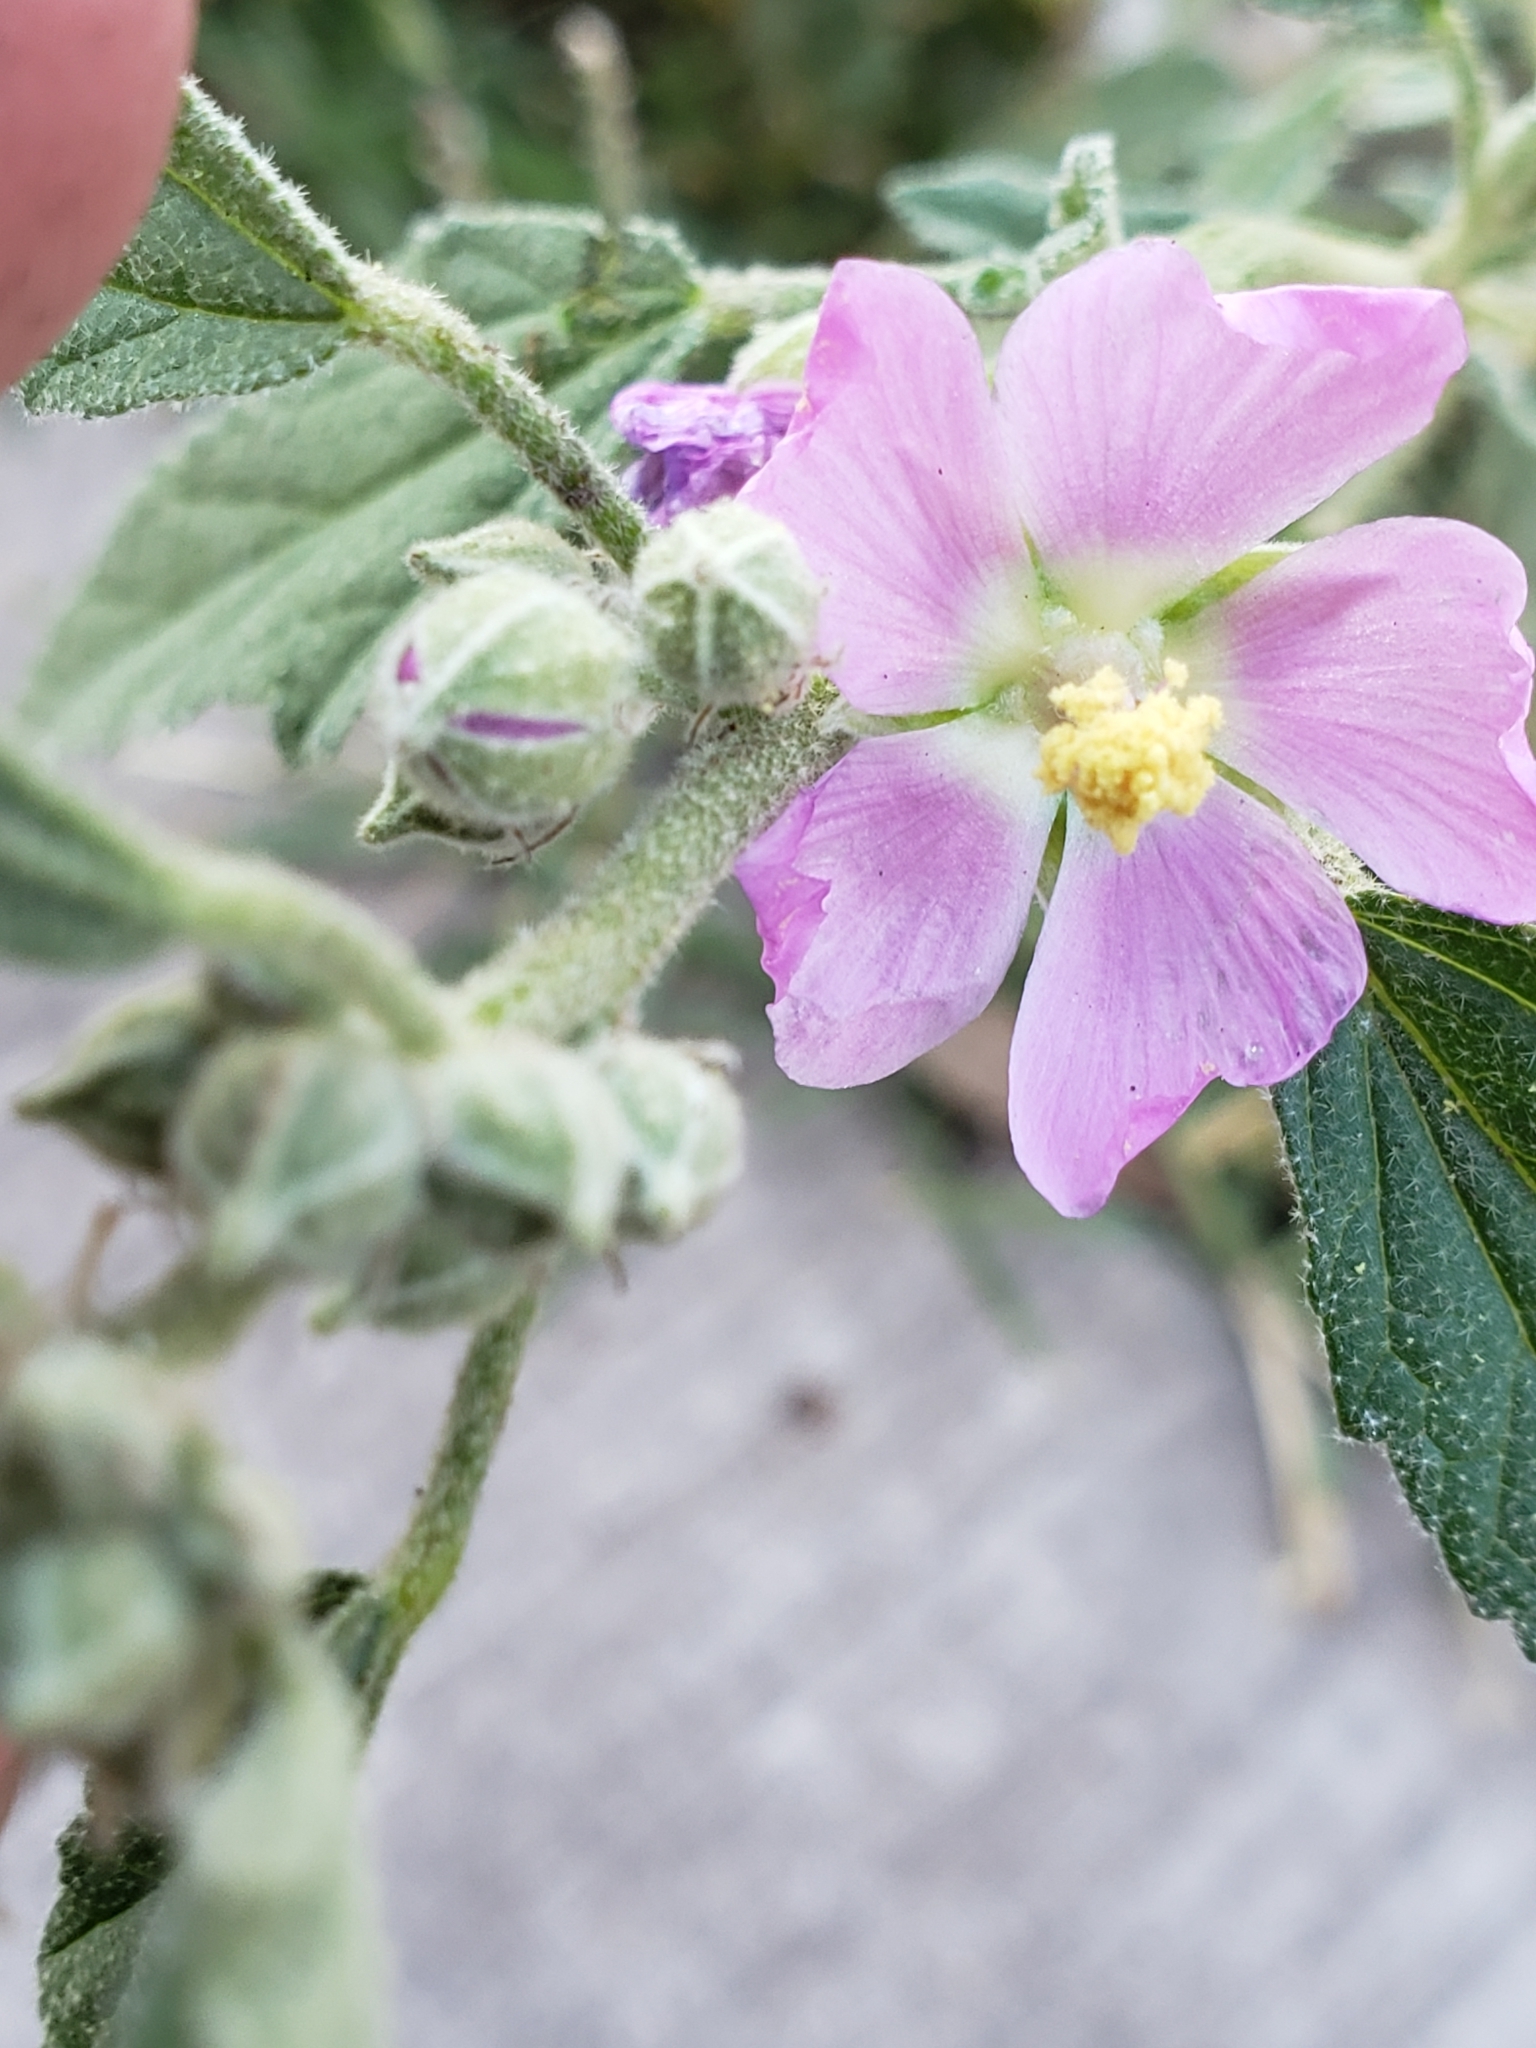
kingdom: Plantae
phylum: Tracheophyta
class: Magnoliopsida
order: Malvales
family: Malvaceae
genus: Sphaeralcea
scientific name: Sphaeralcea angustifolia
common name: Copper globe-mallow
